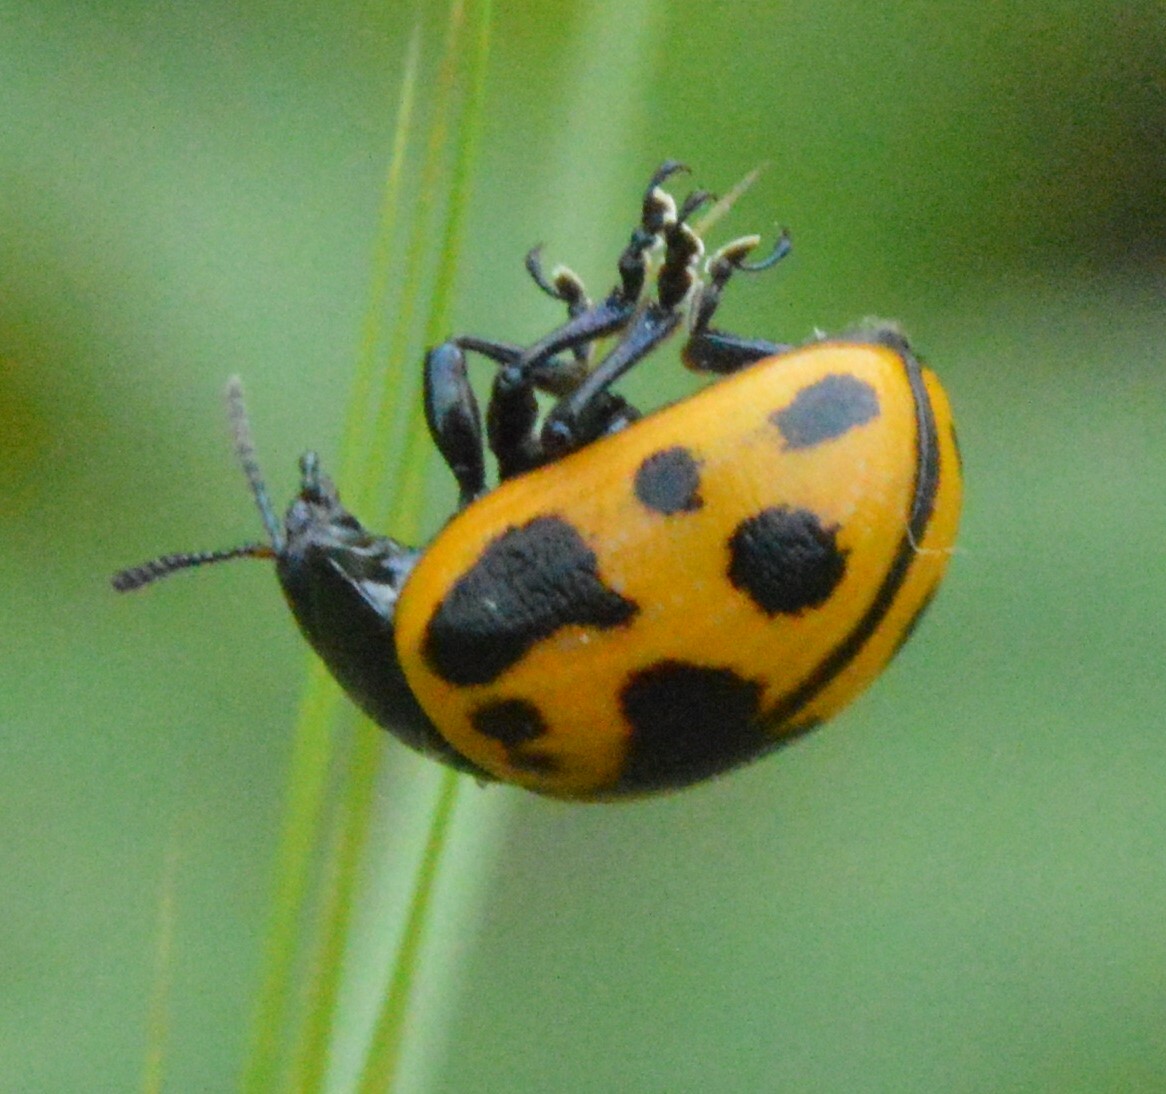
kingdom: Animalia
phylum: Arthropoda
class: Insecta
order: Coleoptera
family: Chrysomelidae
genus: Labidomera
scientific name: Labidomera clivicollis
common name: Swamp milkweed leaf beetle
